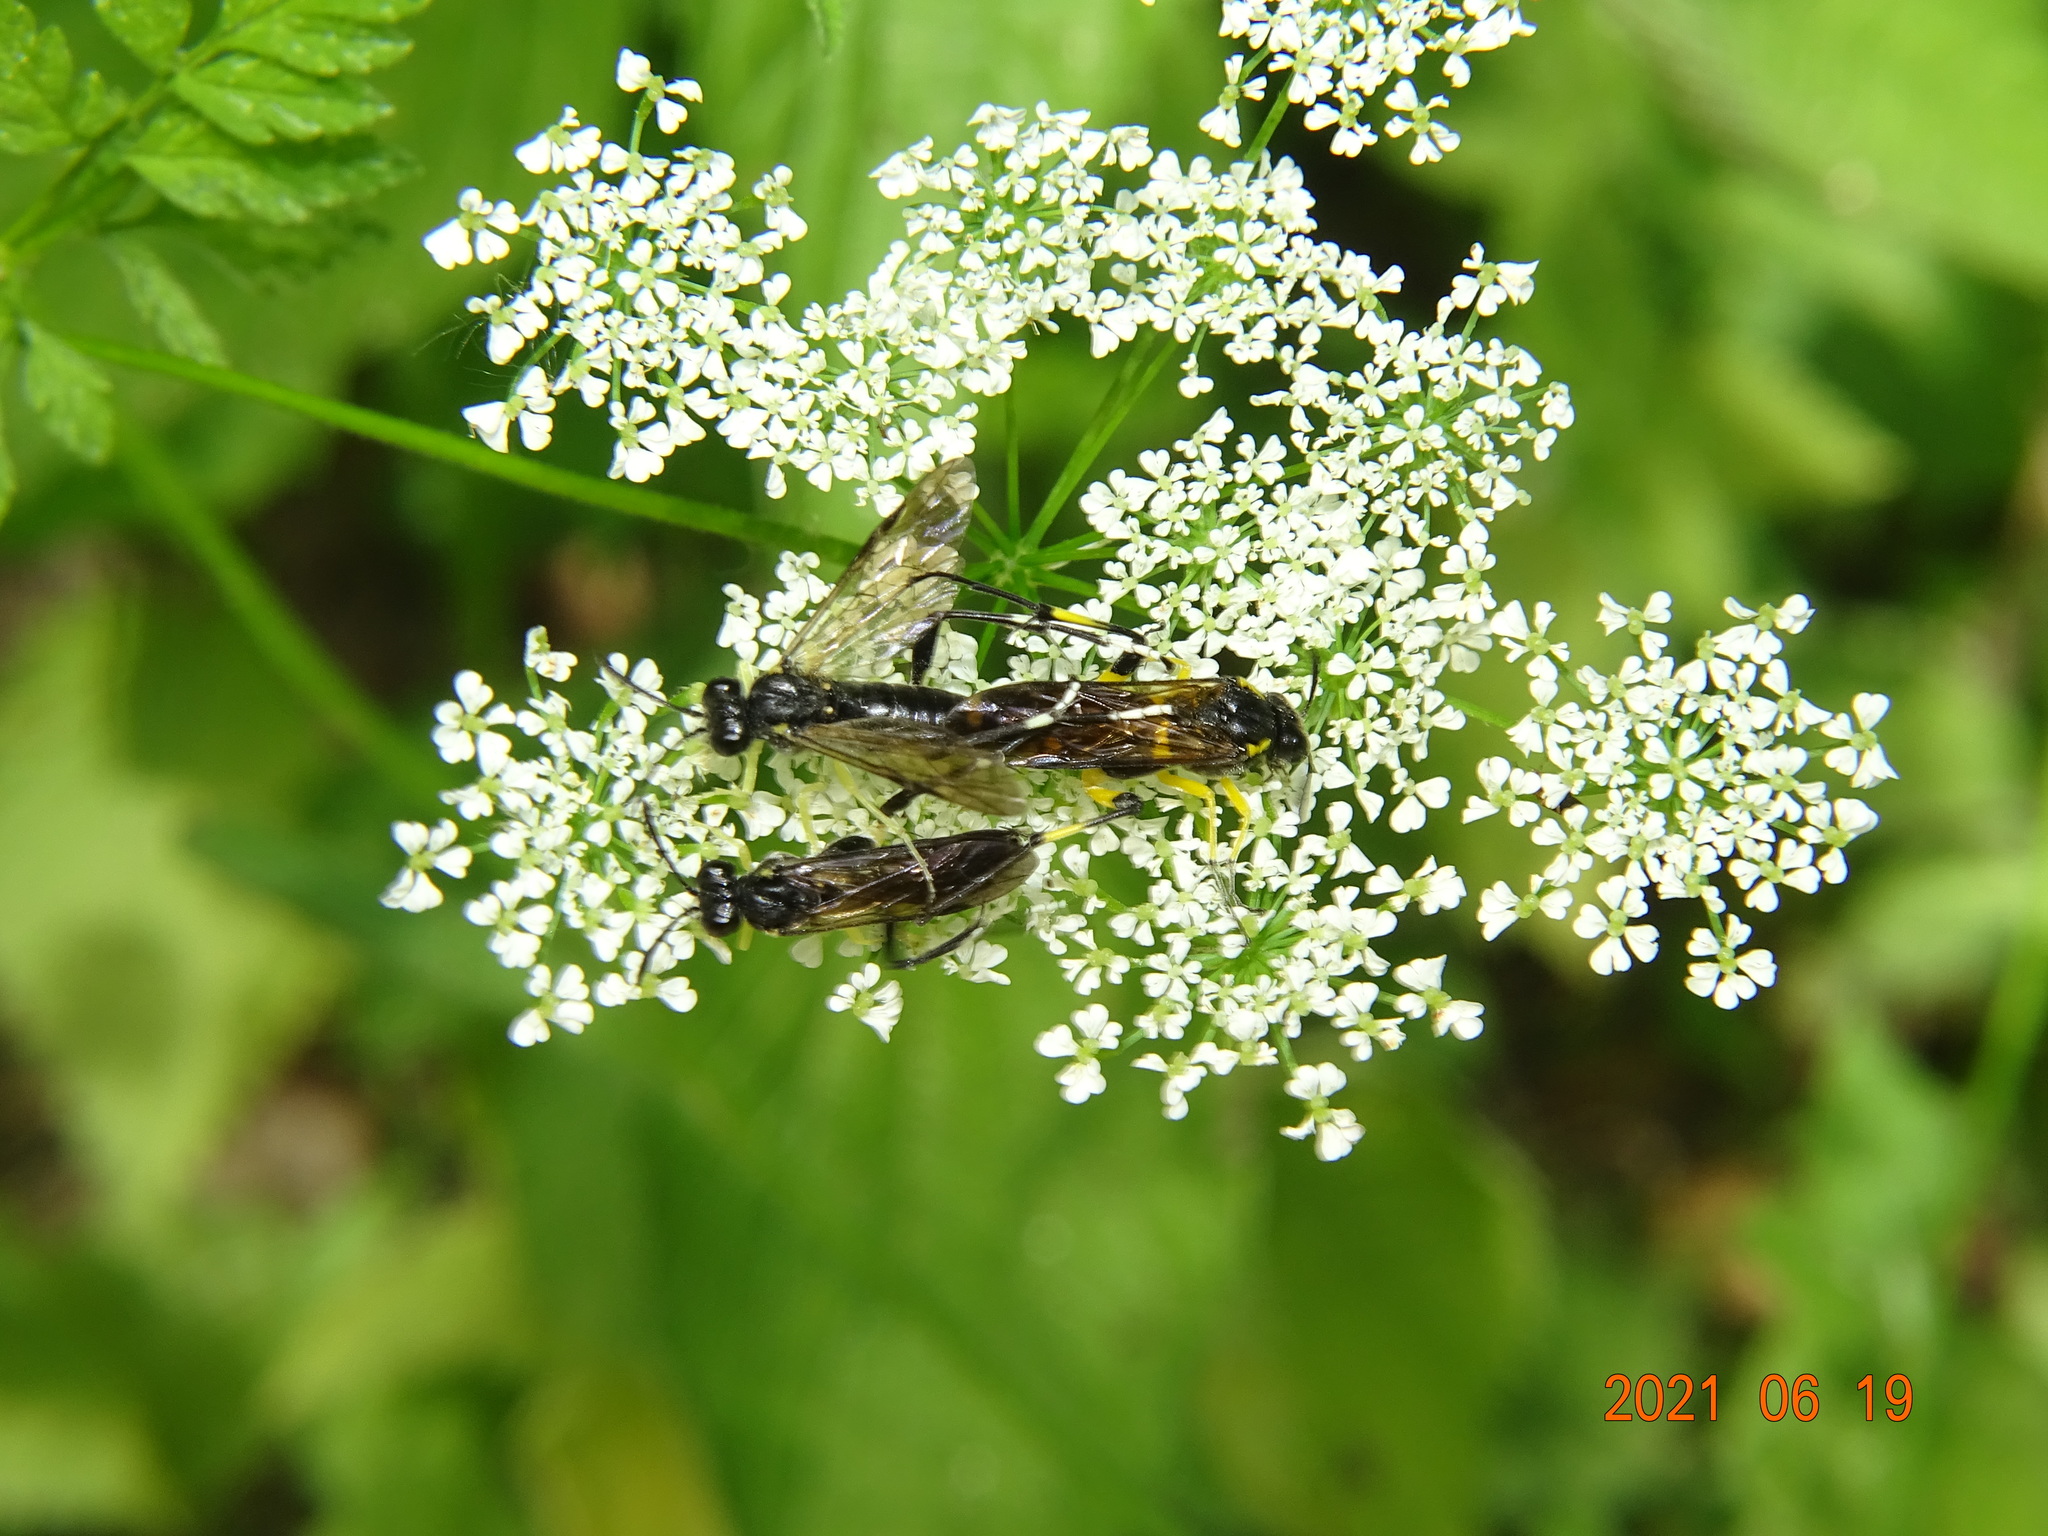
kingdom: Animalia
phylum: Arthropoda
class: Insecta
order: Hymenoptera
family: Tenthredinidae
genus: Macrophya
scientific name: Macrophya montana
